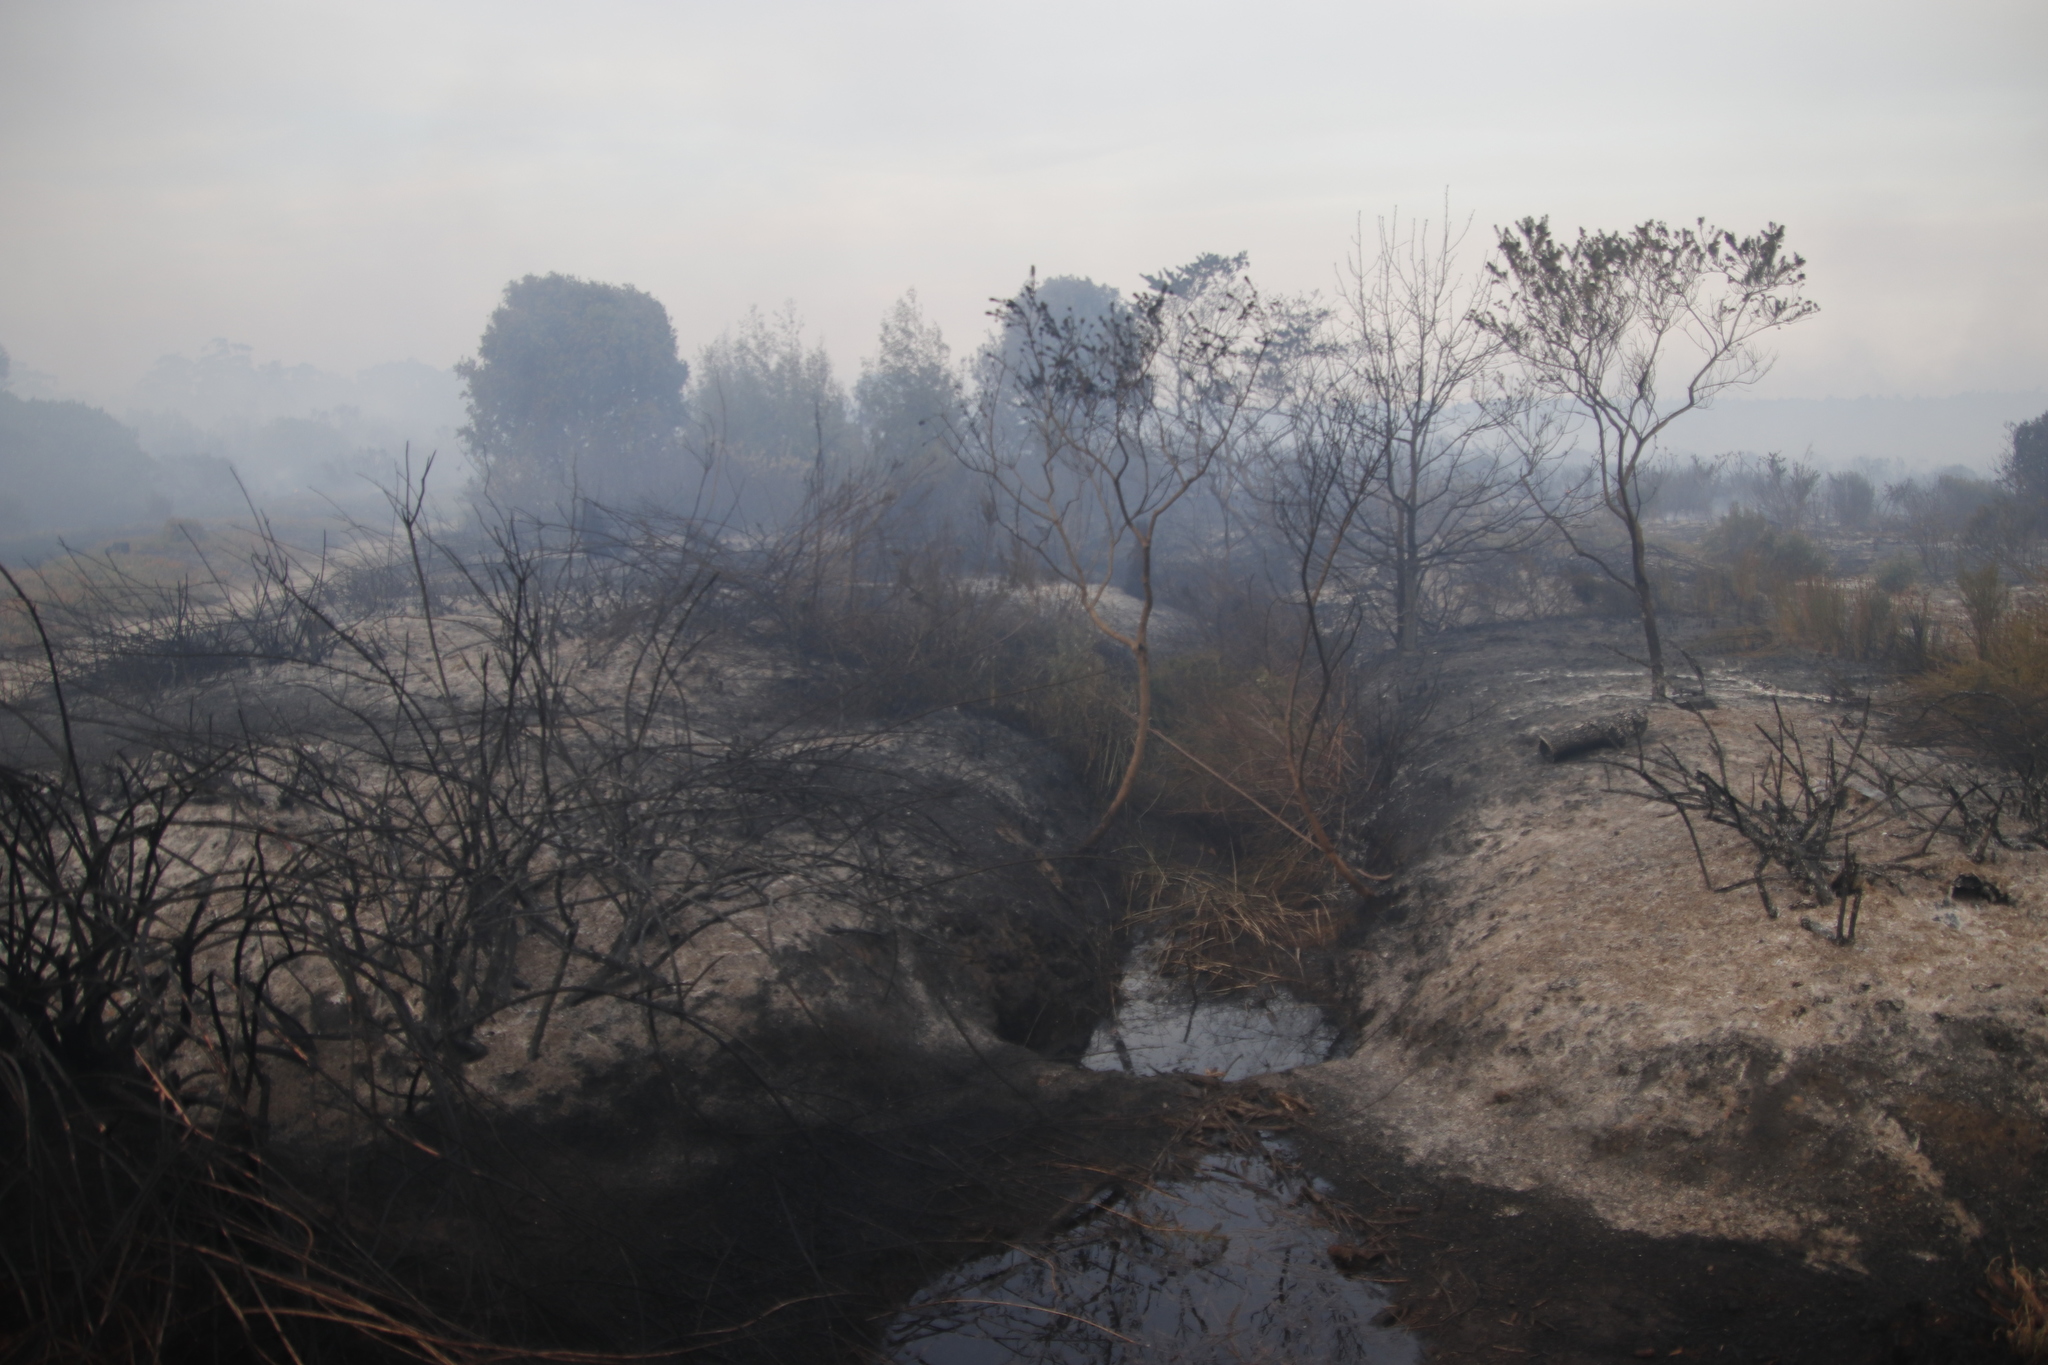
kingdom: Plantae
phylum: Tracheophyta
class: Magnoliopsida
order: Fabales
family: Fabaceae
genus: Psoralea
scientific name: Psoralea pinnata
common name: African scurfpea
